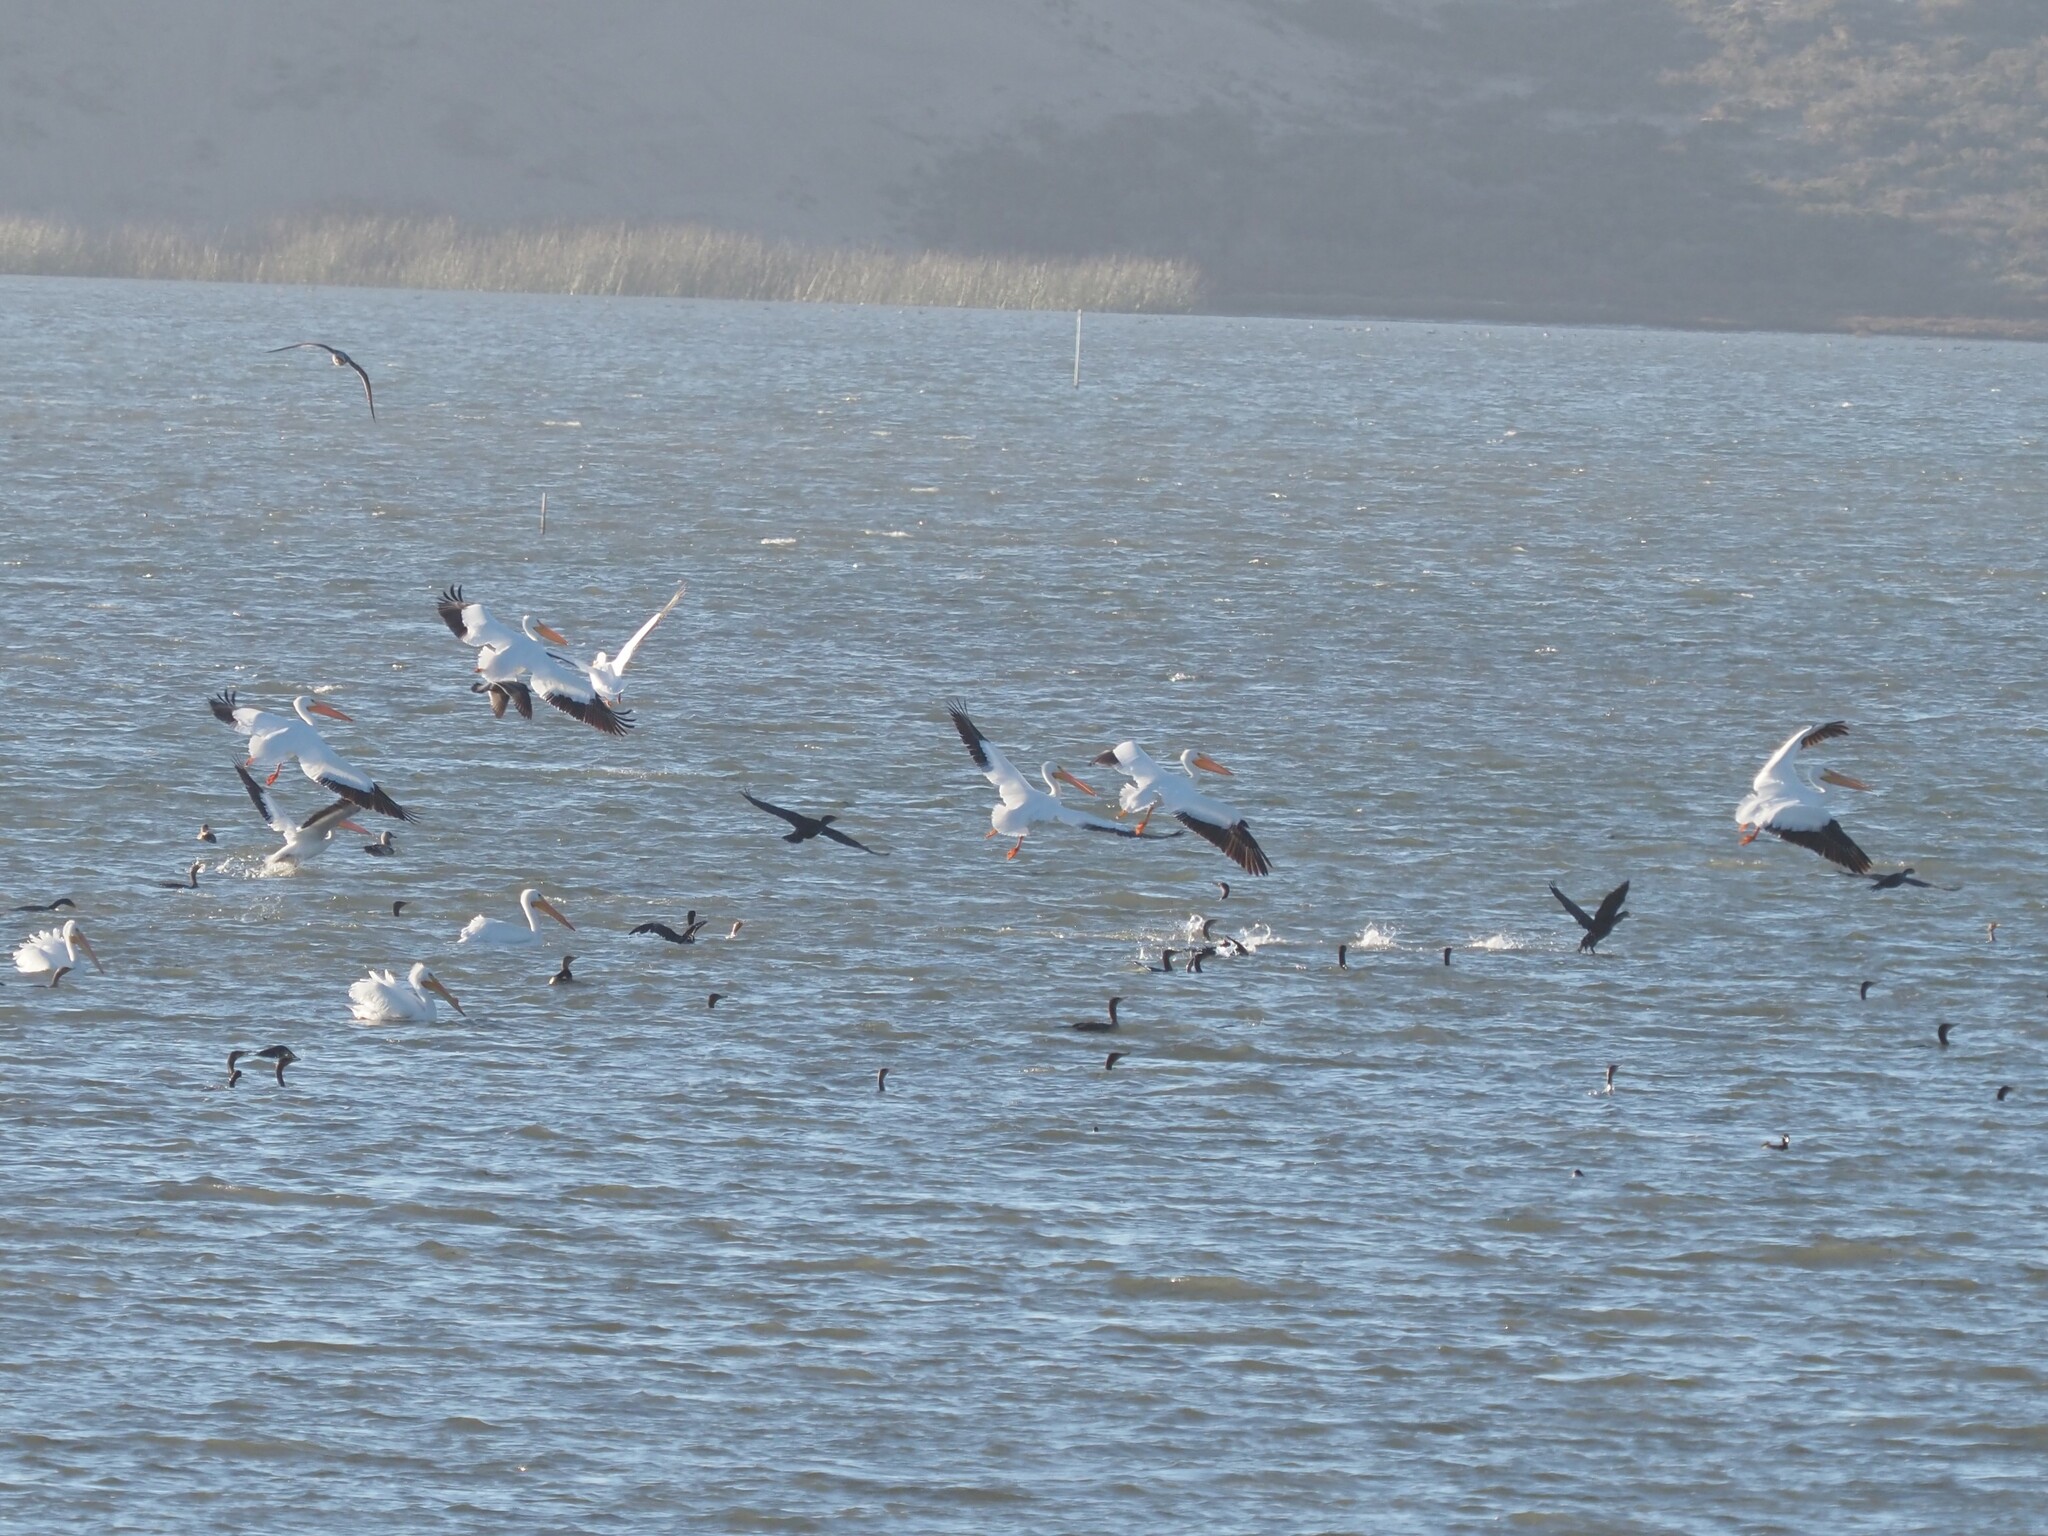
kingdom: Animalia
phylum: Chordata
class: Aves
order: Pelecaniformes
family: Pelecanidae
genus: Pelecanus
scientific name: Pelecanus erythrorhynchos
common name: American white pelican
